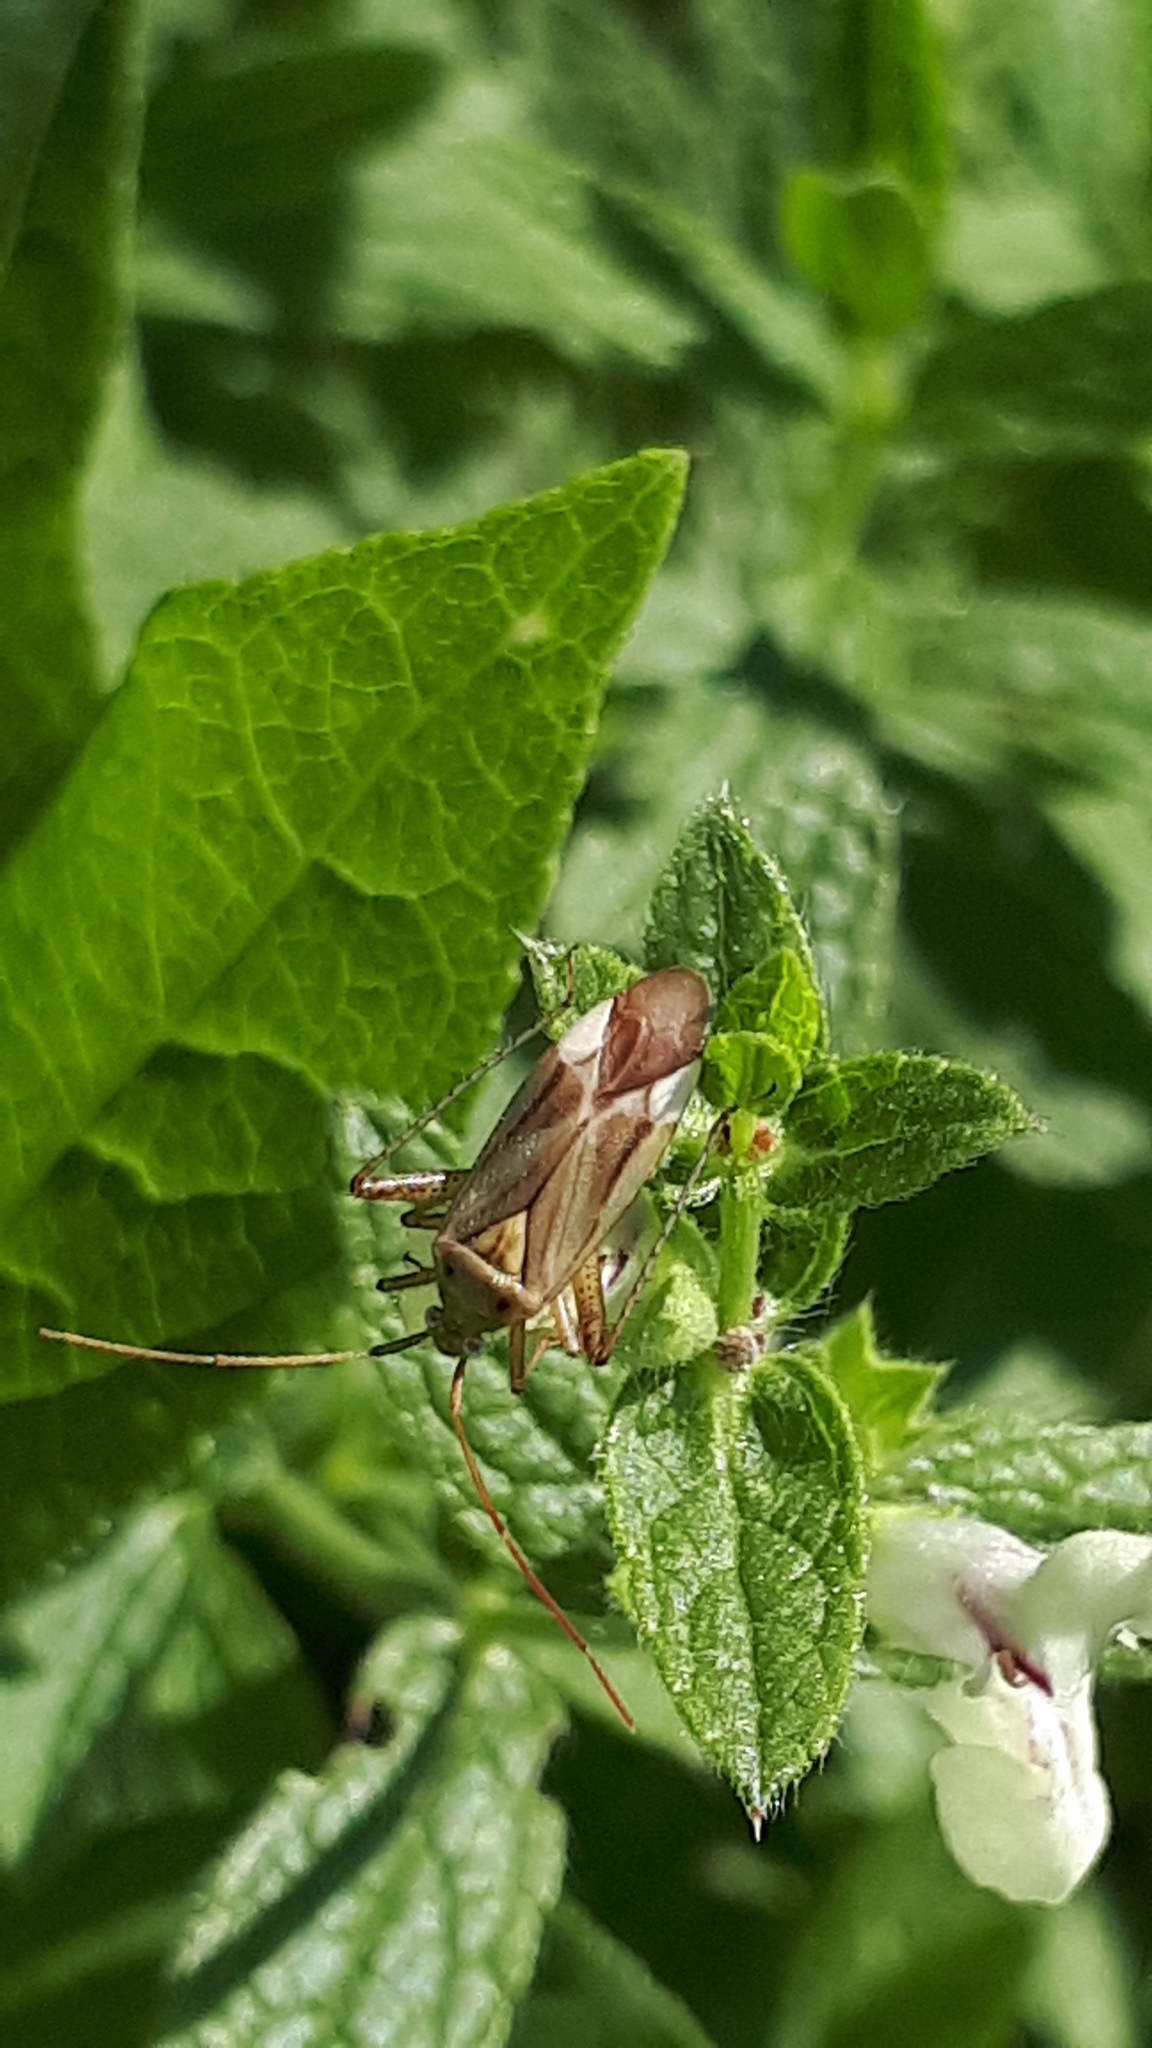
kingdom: Animalia
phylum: Arthropoda
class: Insecta
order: Hemiptera
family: Miridae
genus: Adelphocoris
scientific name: Adelphocoris lineolatus
